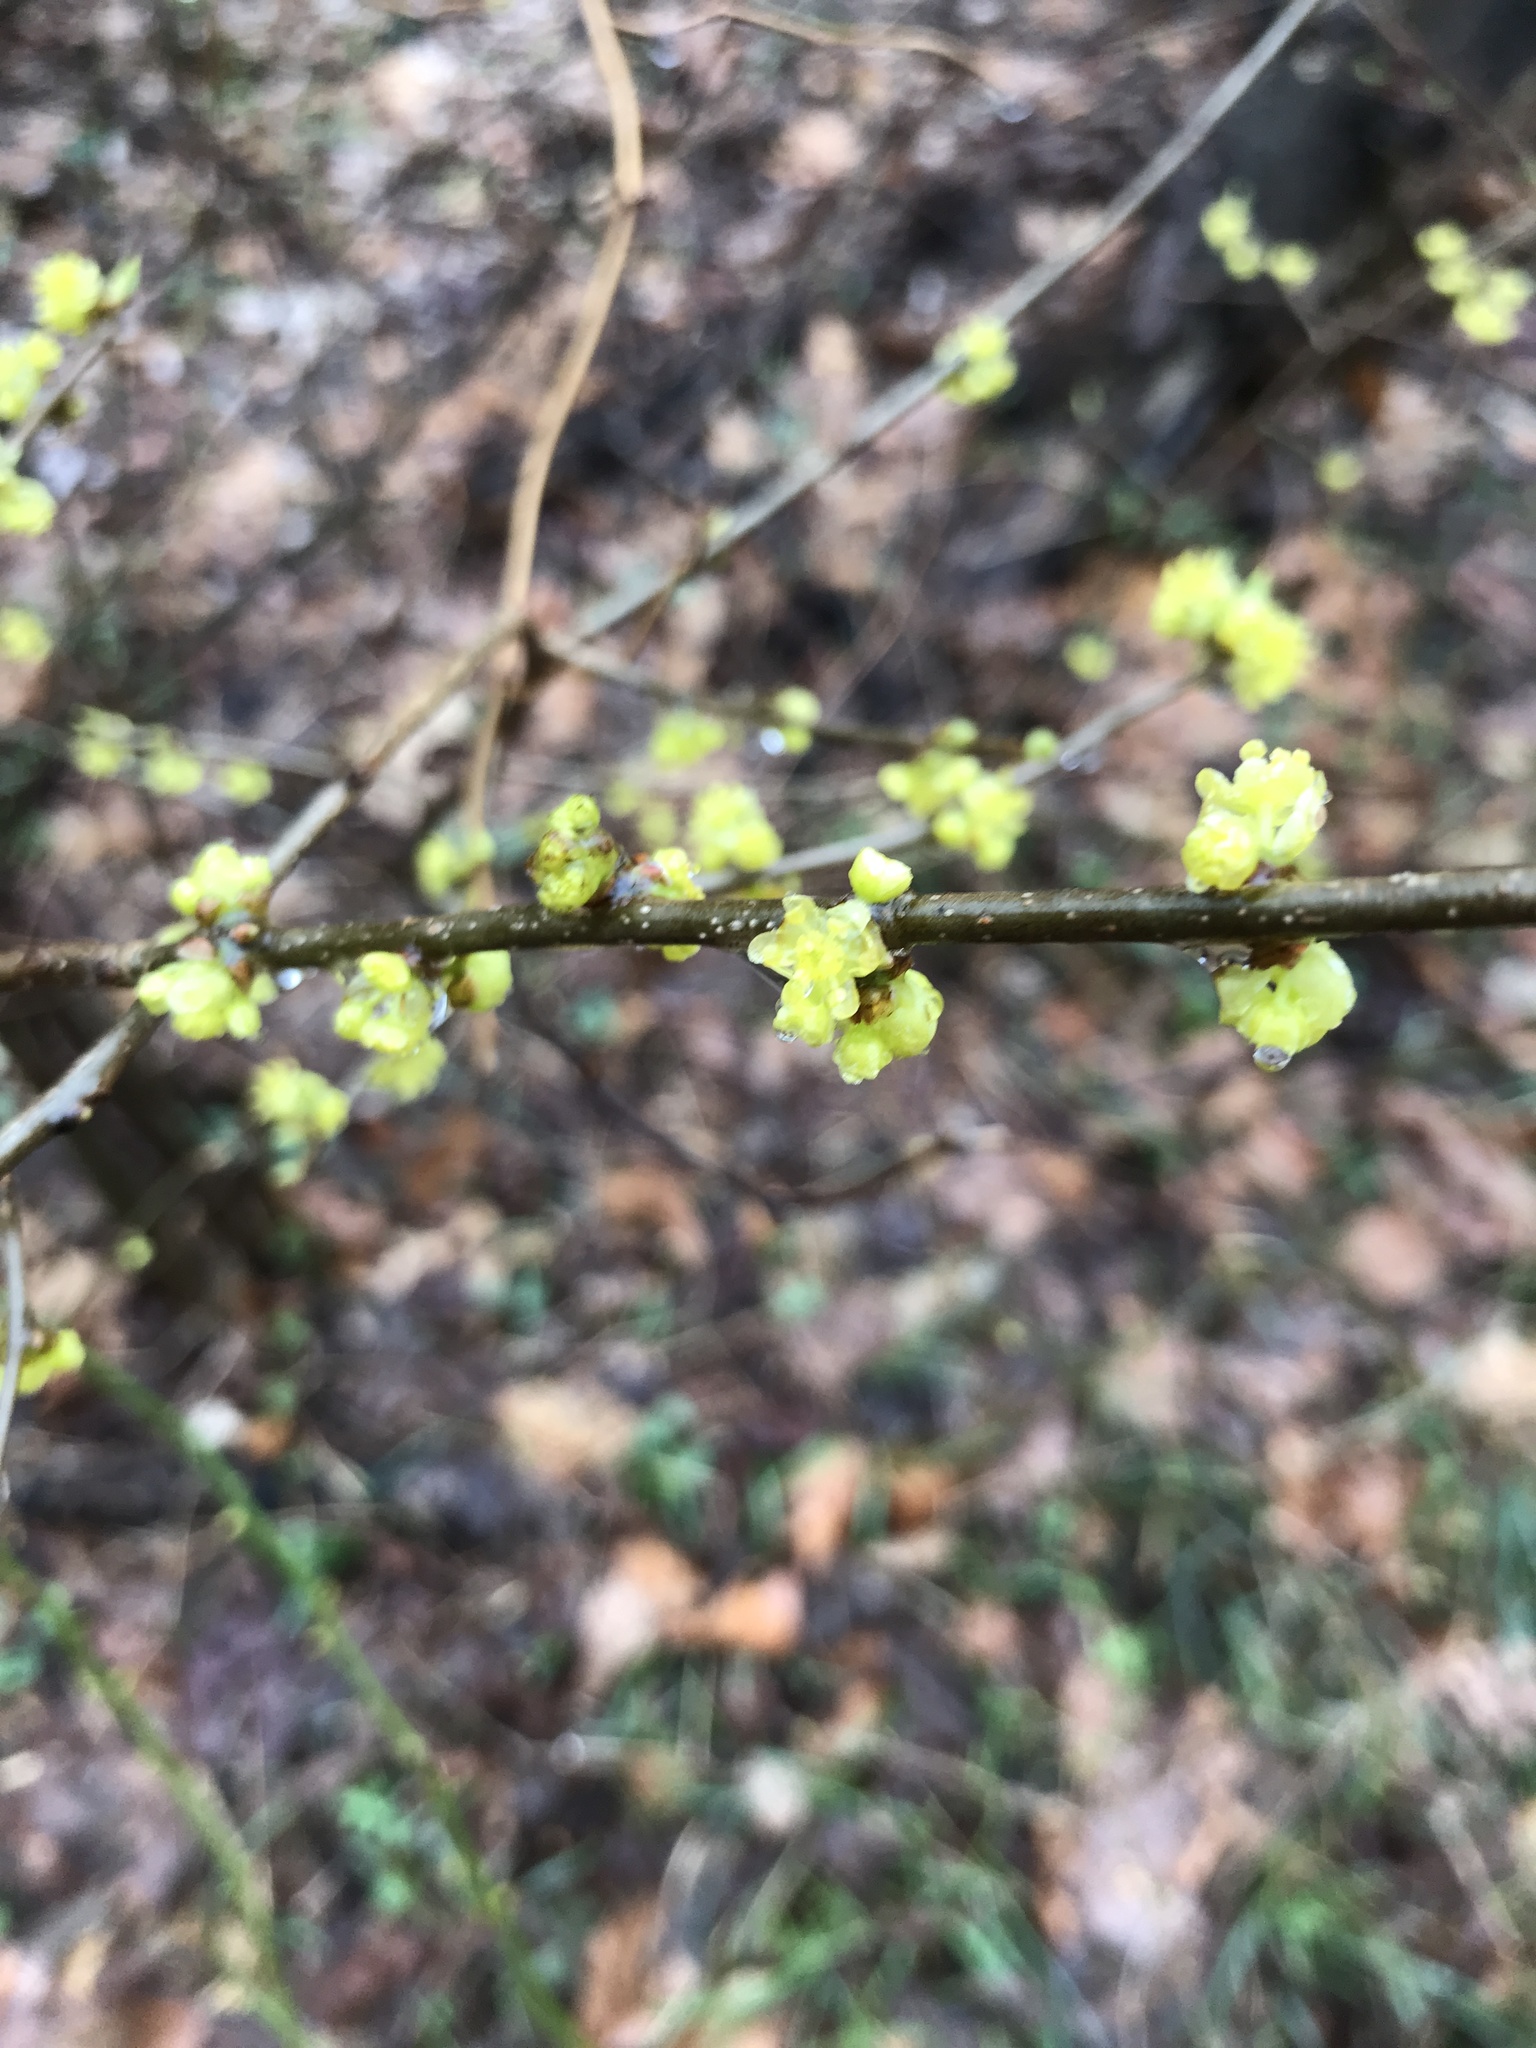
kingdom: Plantae
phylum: Tracheophyta
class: Magnoliopsida
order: Laurales
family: Lauraceae
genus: Lindera
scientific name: Lindera benzoin
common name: Spicebush
